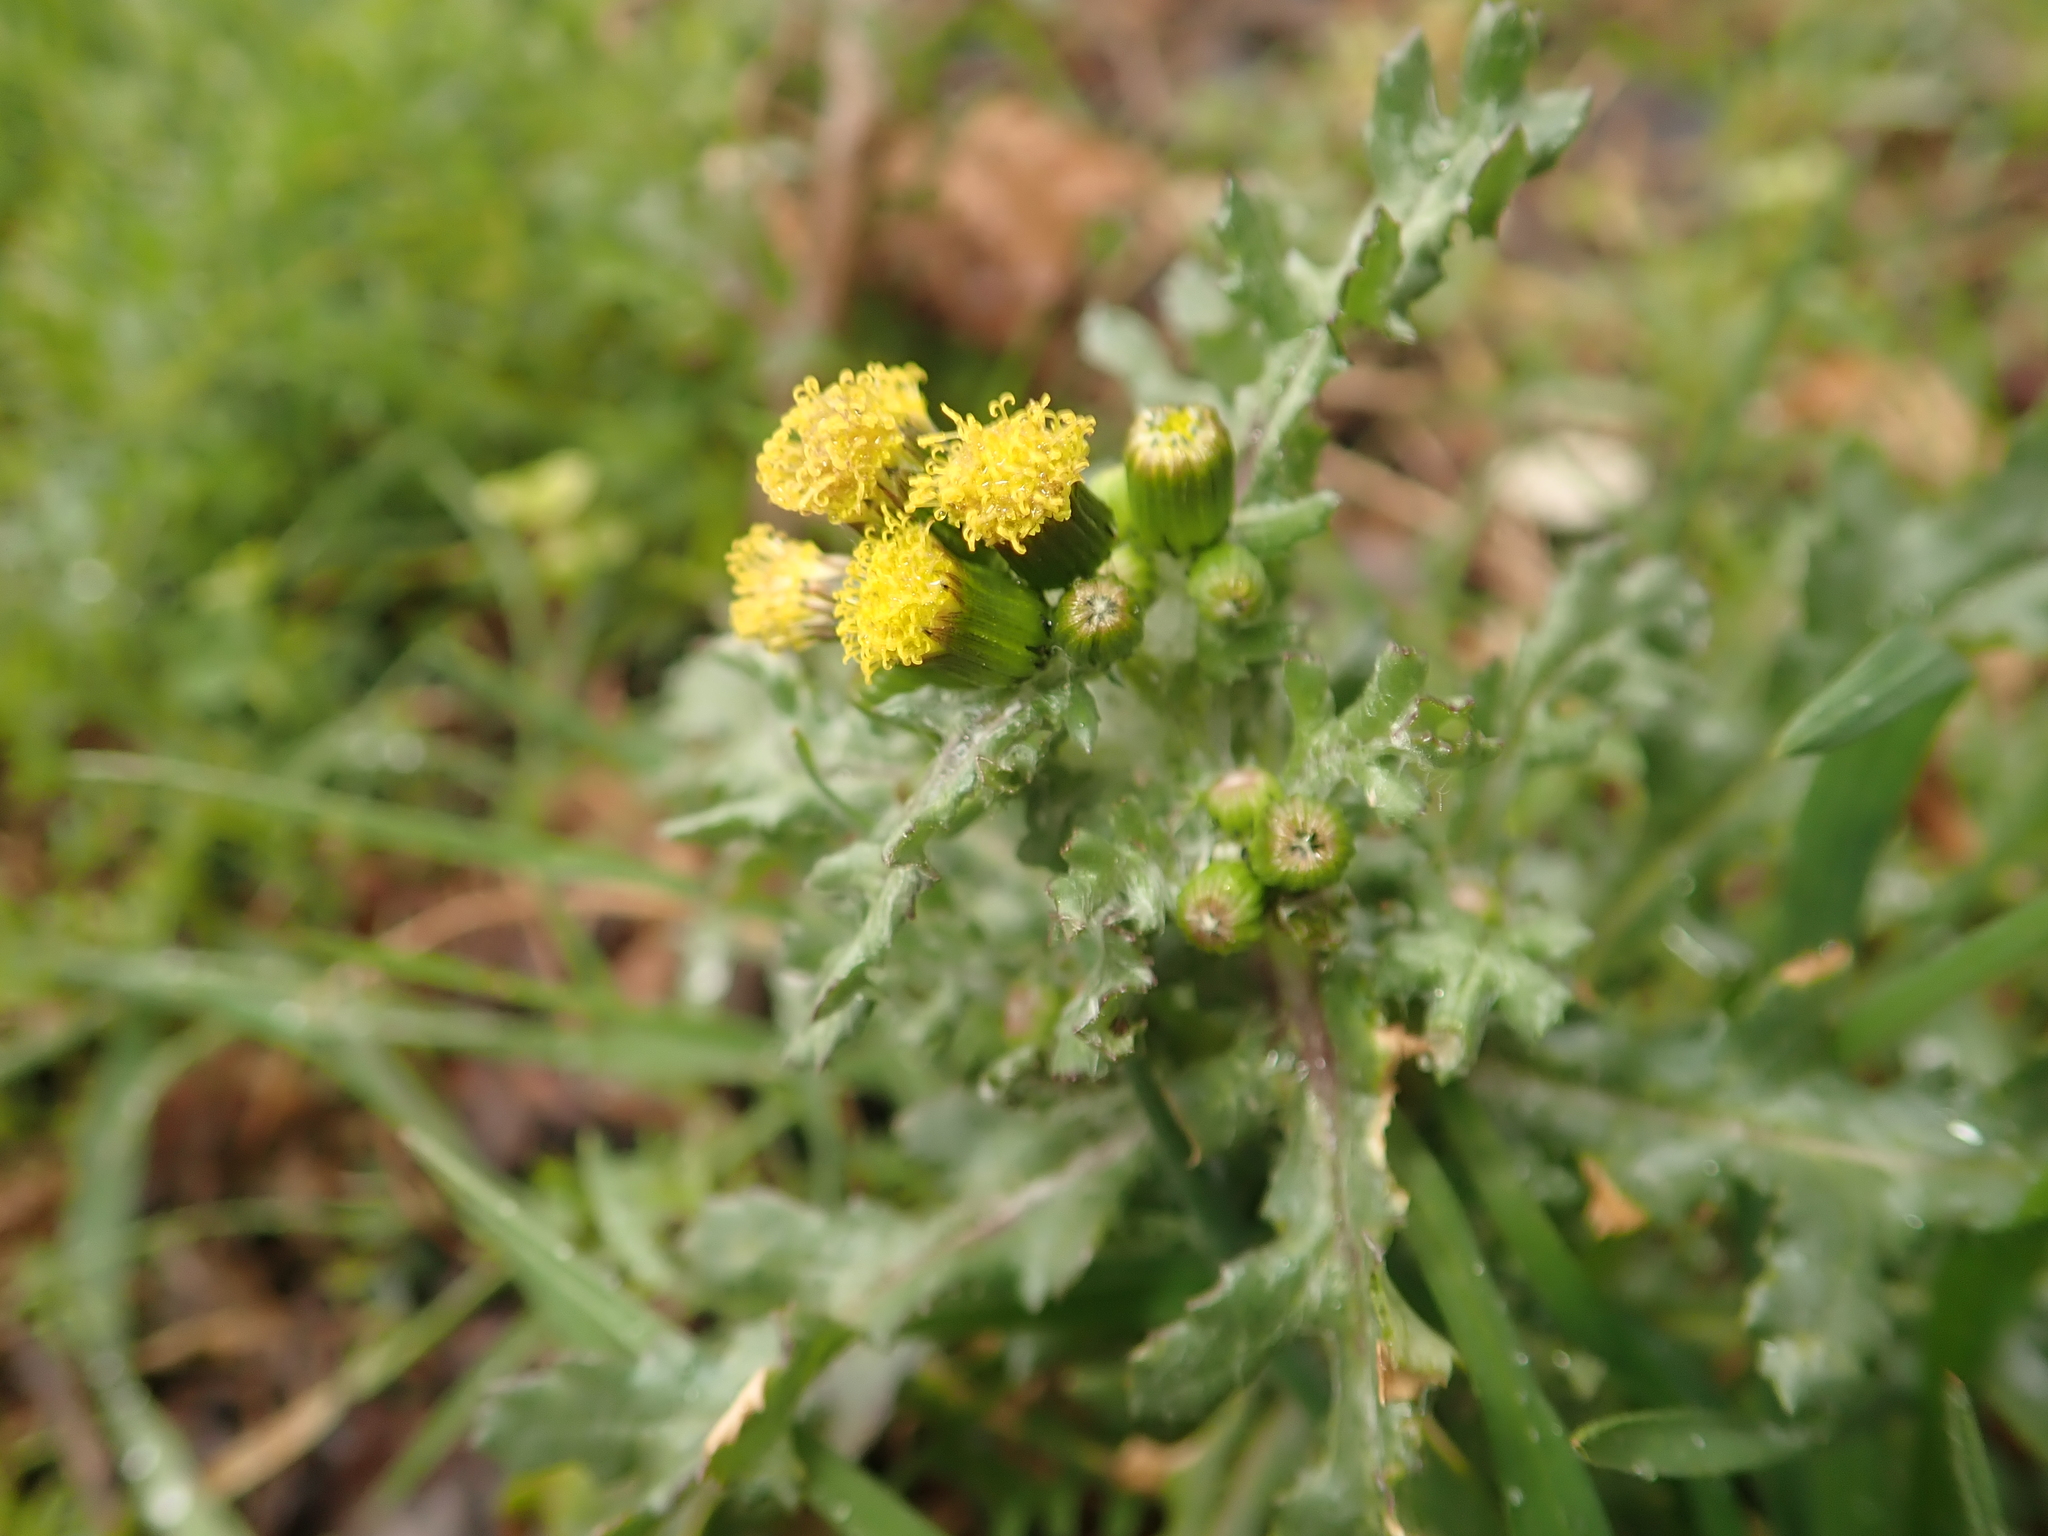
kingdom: Plantae
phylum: Tracheophyta
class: Magnoliopsida
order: Asterales
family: Asteraceae
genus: Senecio
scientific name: Senecio vulgaris
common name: Old-man-in-the-spring
